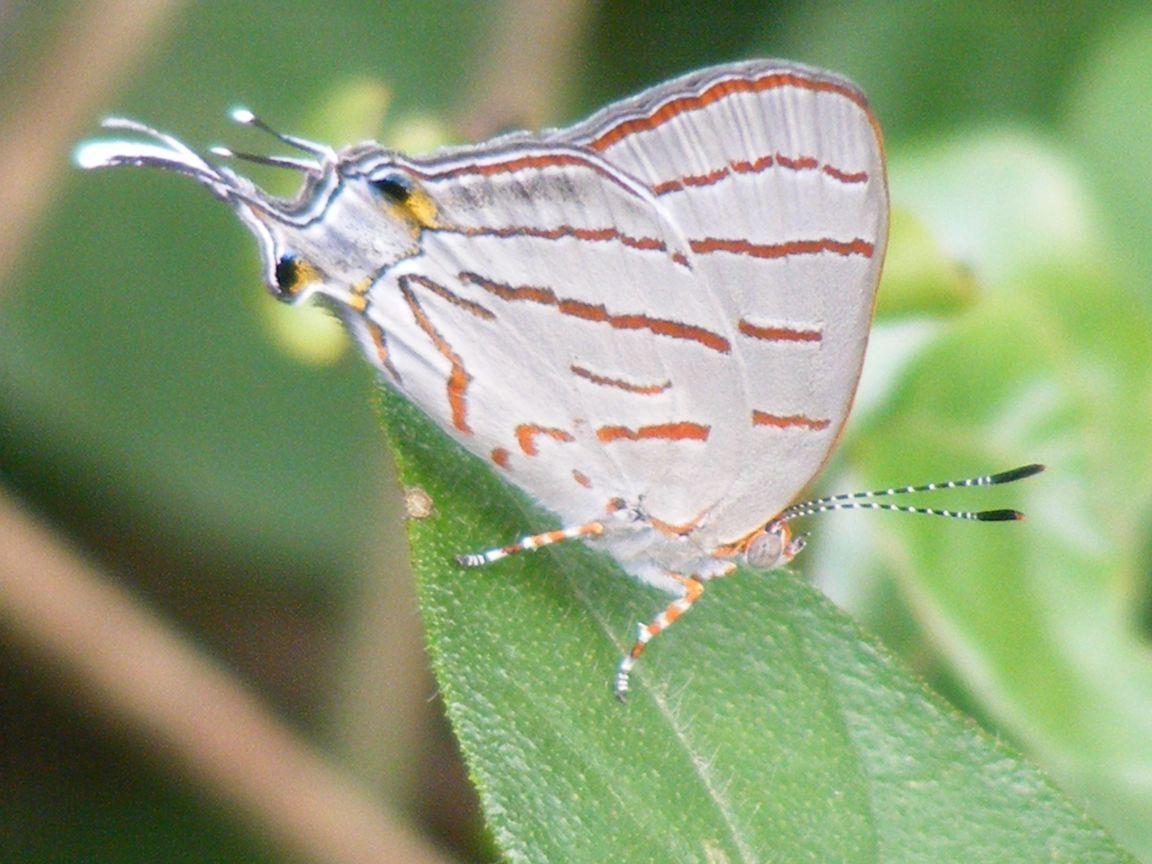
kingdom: Animalia
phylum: Arthropoda
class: Insecta
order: Lepidoptera
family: Lycaenidae
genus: Hemiolaus
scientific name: Hemiolaus caeculus
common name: Azure hairstreak
